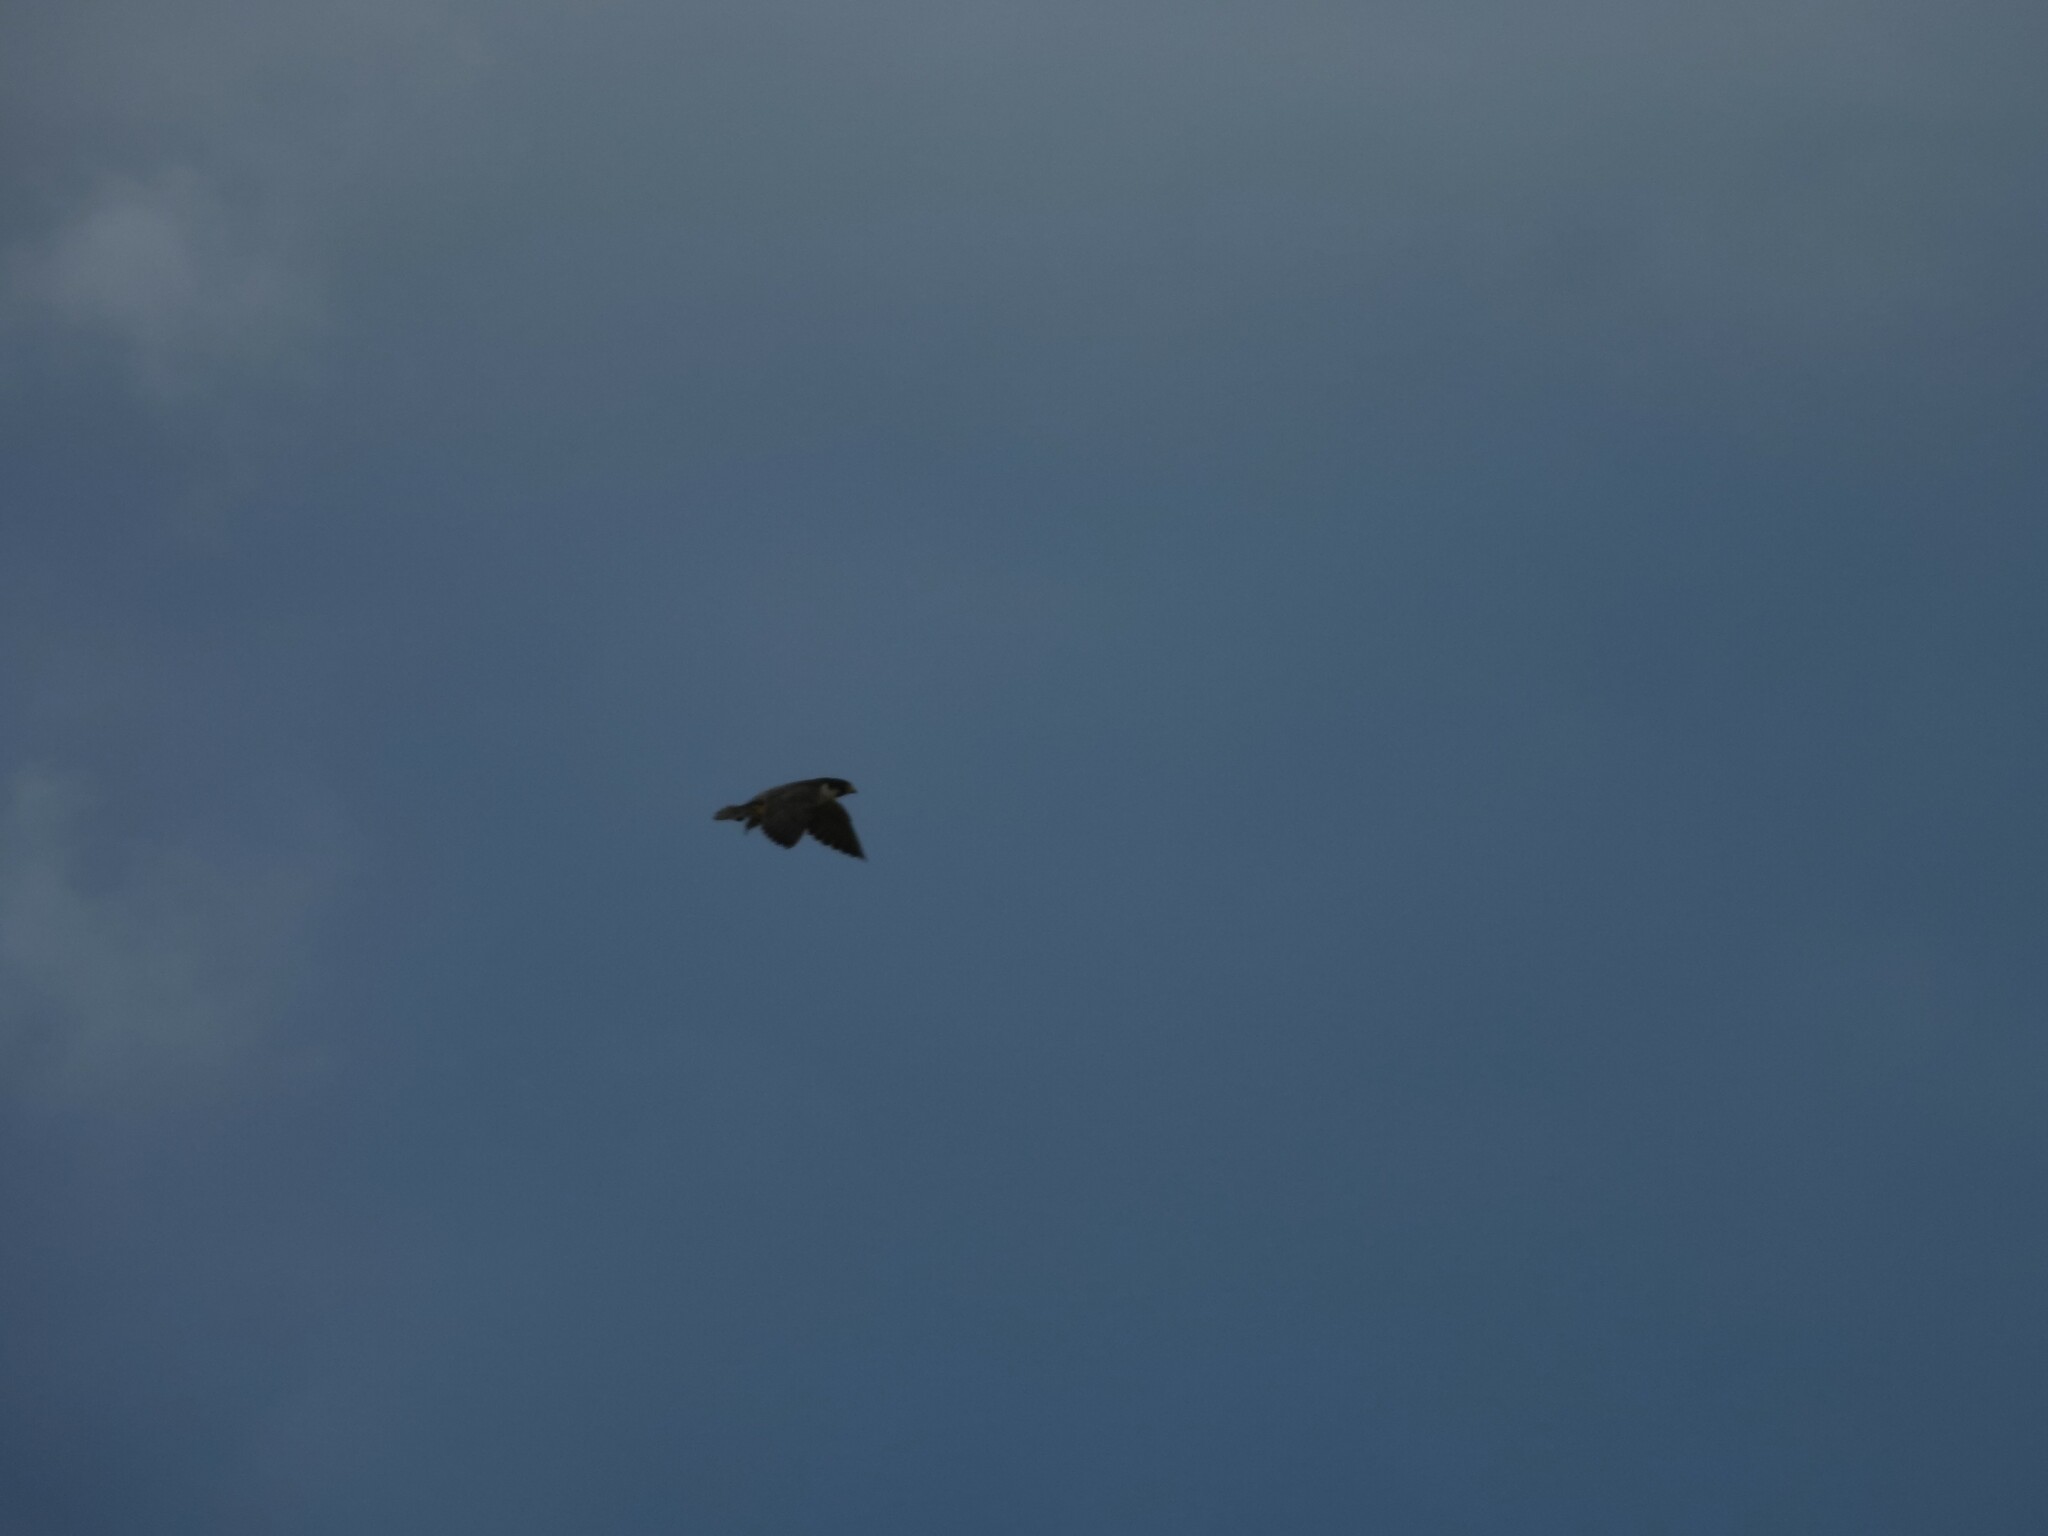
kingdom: Animalia
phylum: Chordata
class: Aves
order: Falconiformes
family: Falconidae
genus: Falco
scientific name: Falco peregrinus
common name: Peregrine falcon
